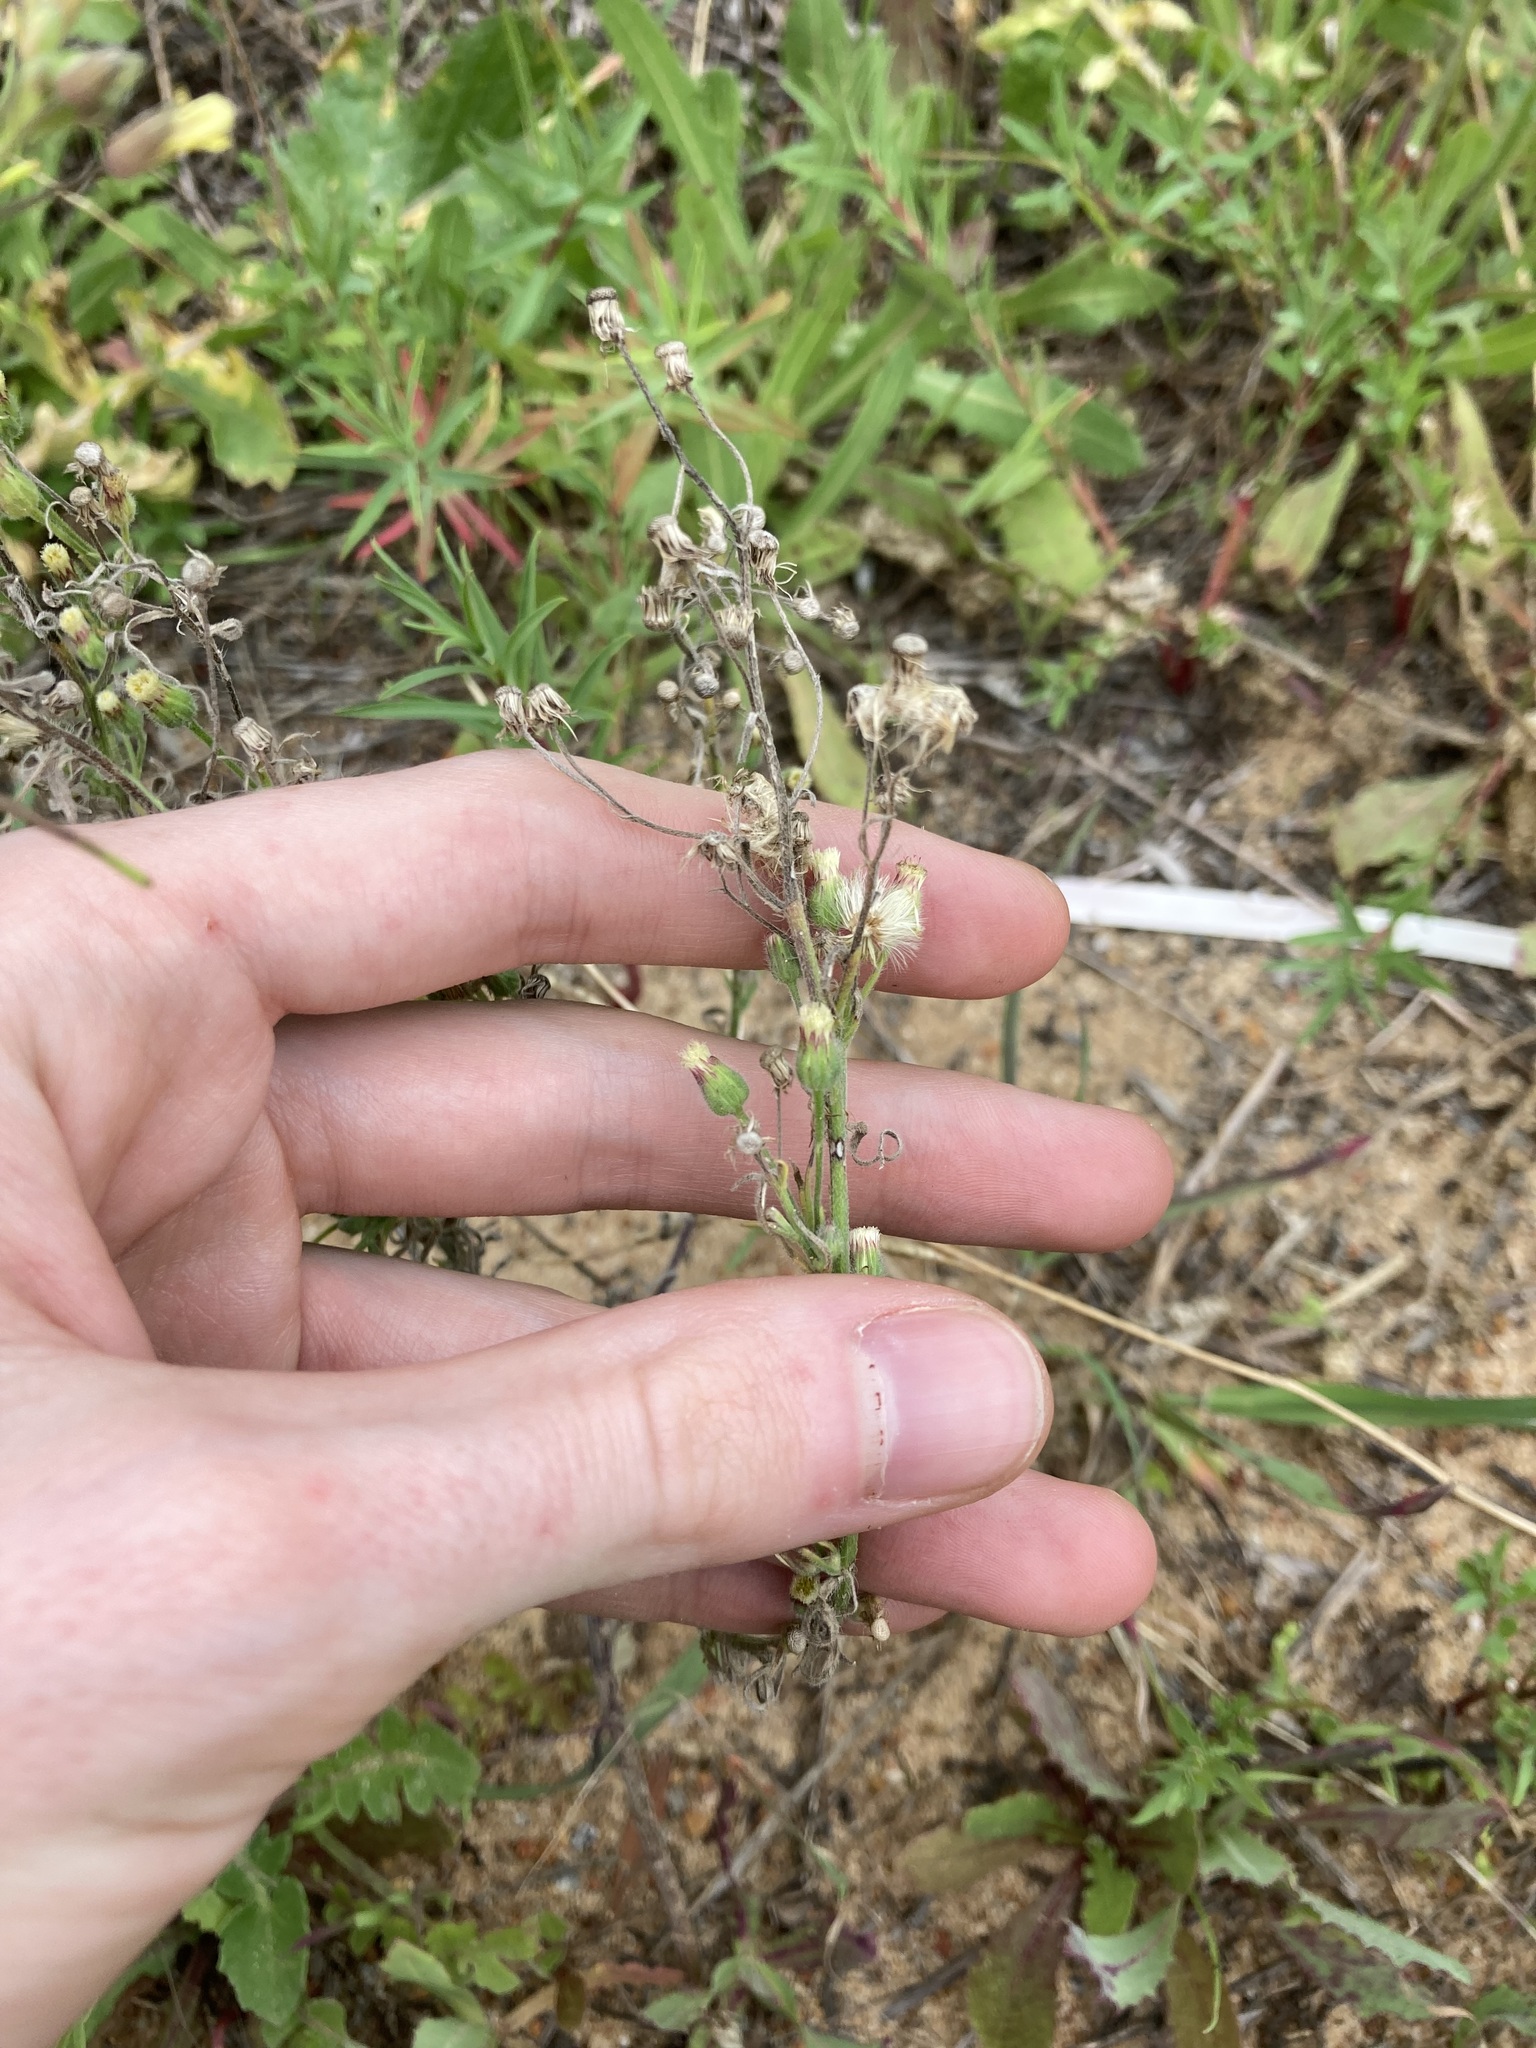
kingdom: Plantae
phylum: Tracheophyta
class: Magnoliopsida
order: Asterales
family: Asteraceae
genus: Erigeron
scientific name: Erigeron bonariensis
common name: Argentine fleabane
